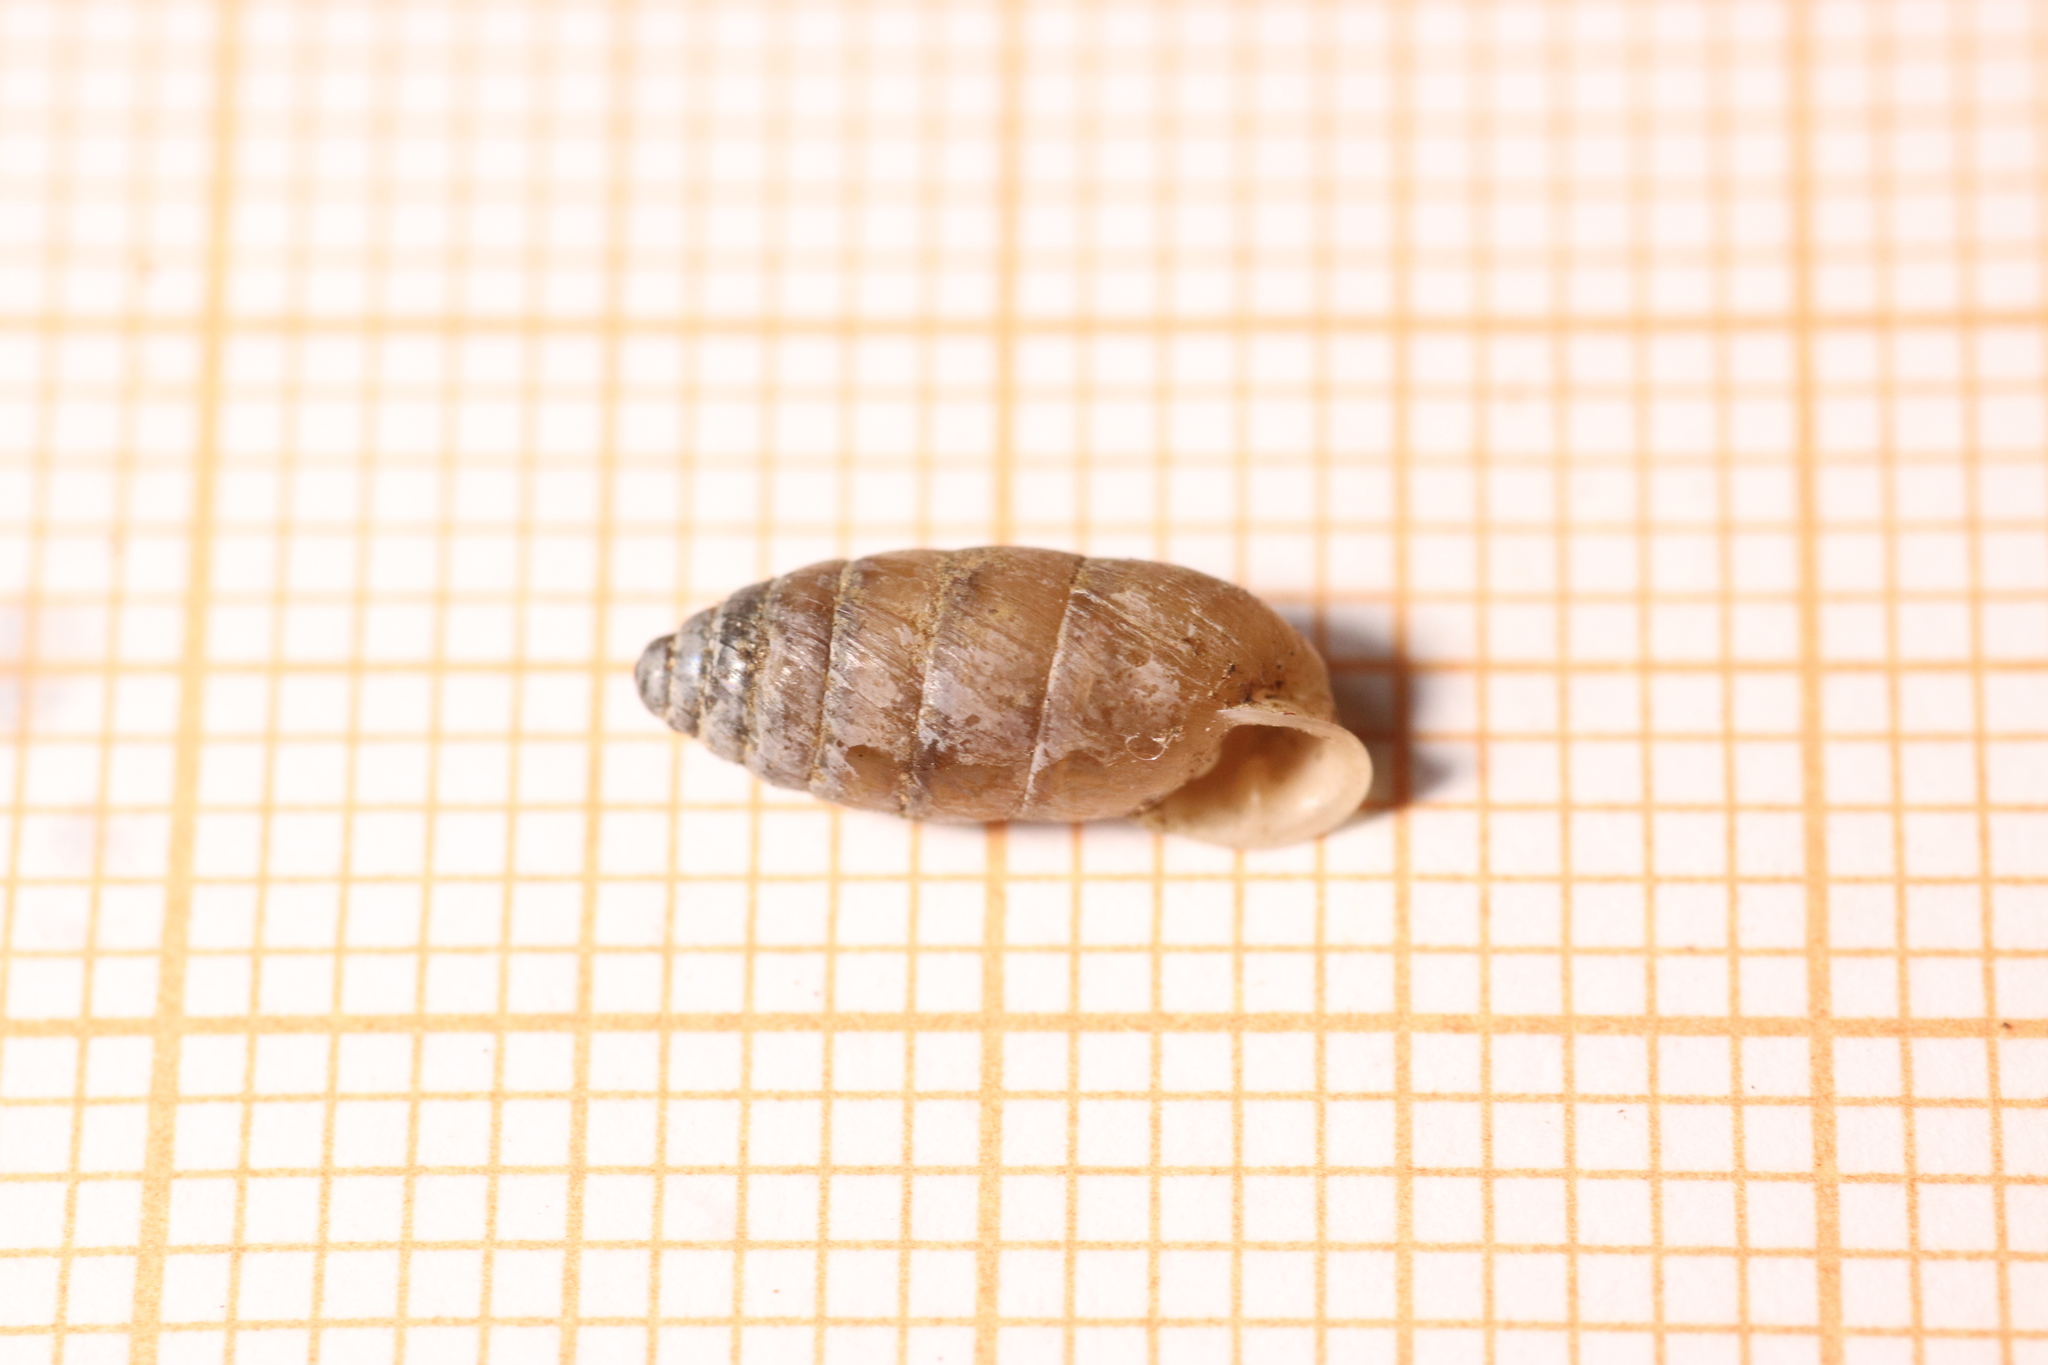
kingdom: Animalia
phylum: Mollusca
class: Gastropoda
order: Stylommatophora
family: Enidae
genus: Jaminia
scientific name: Jaminia quadridens
